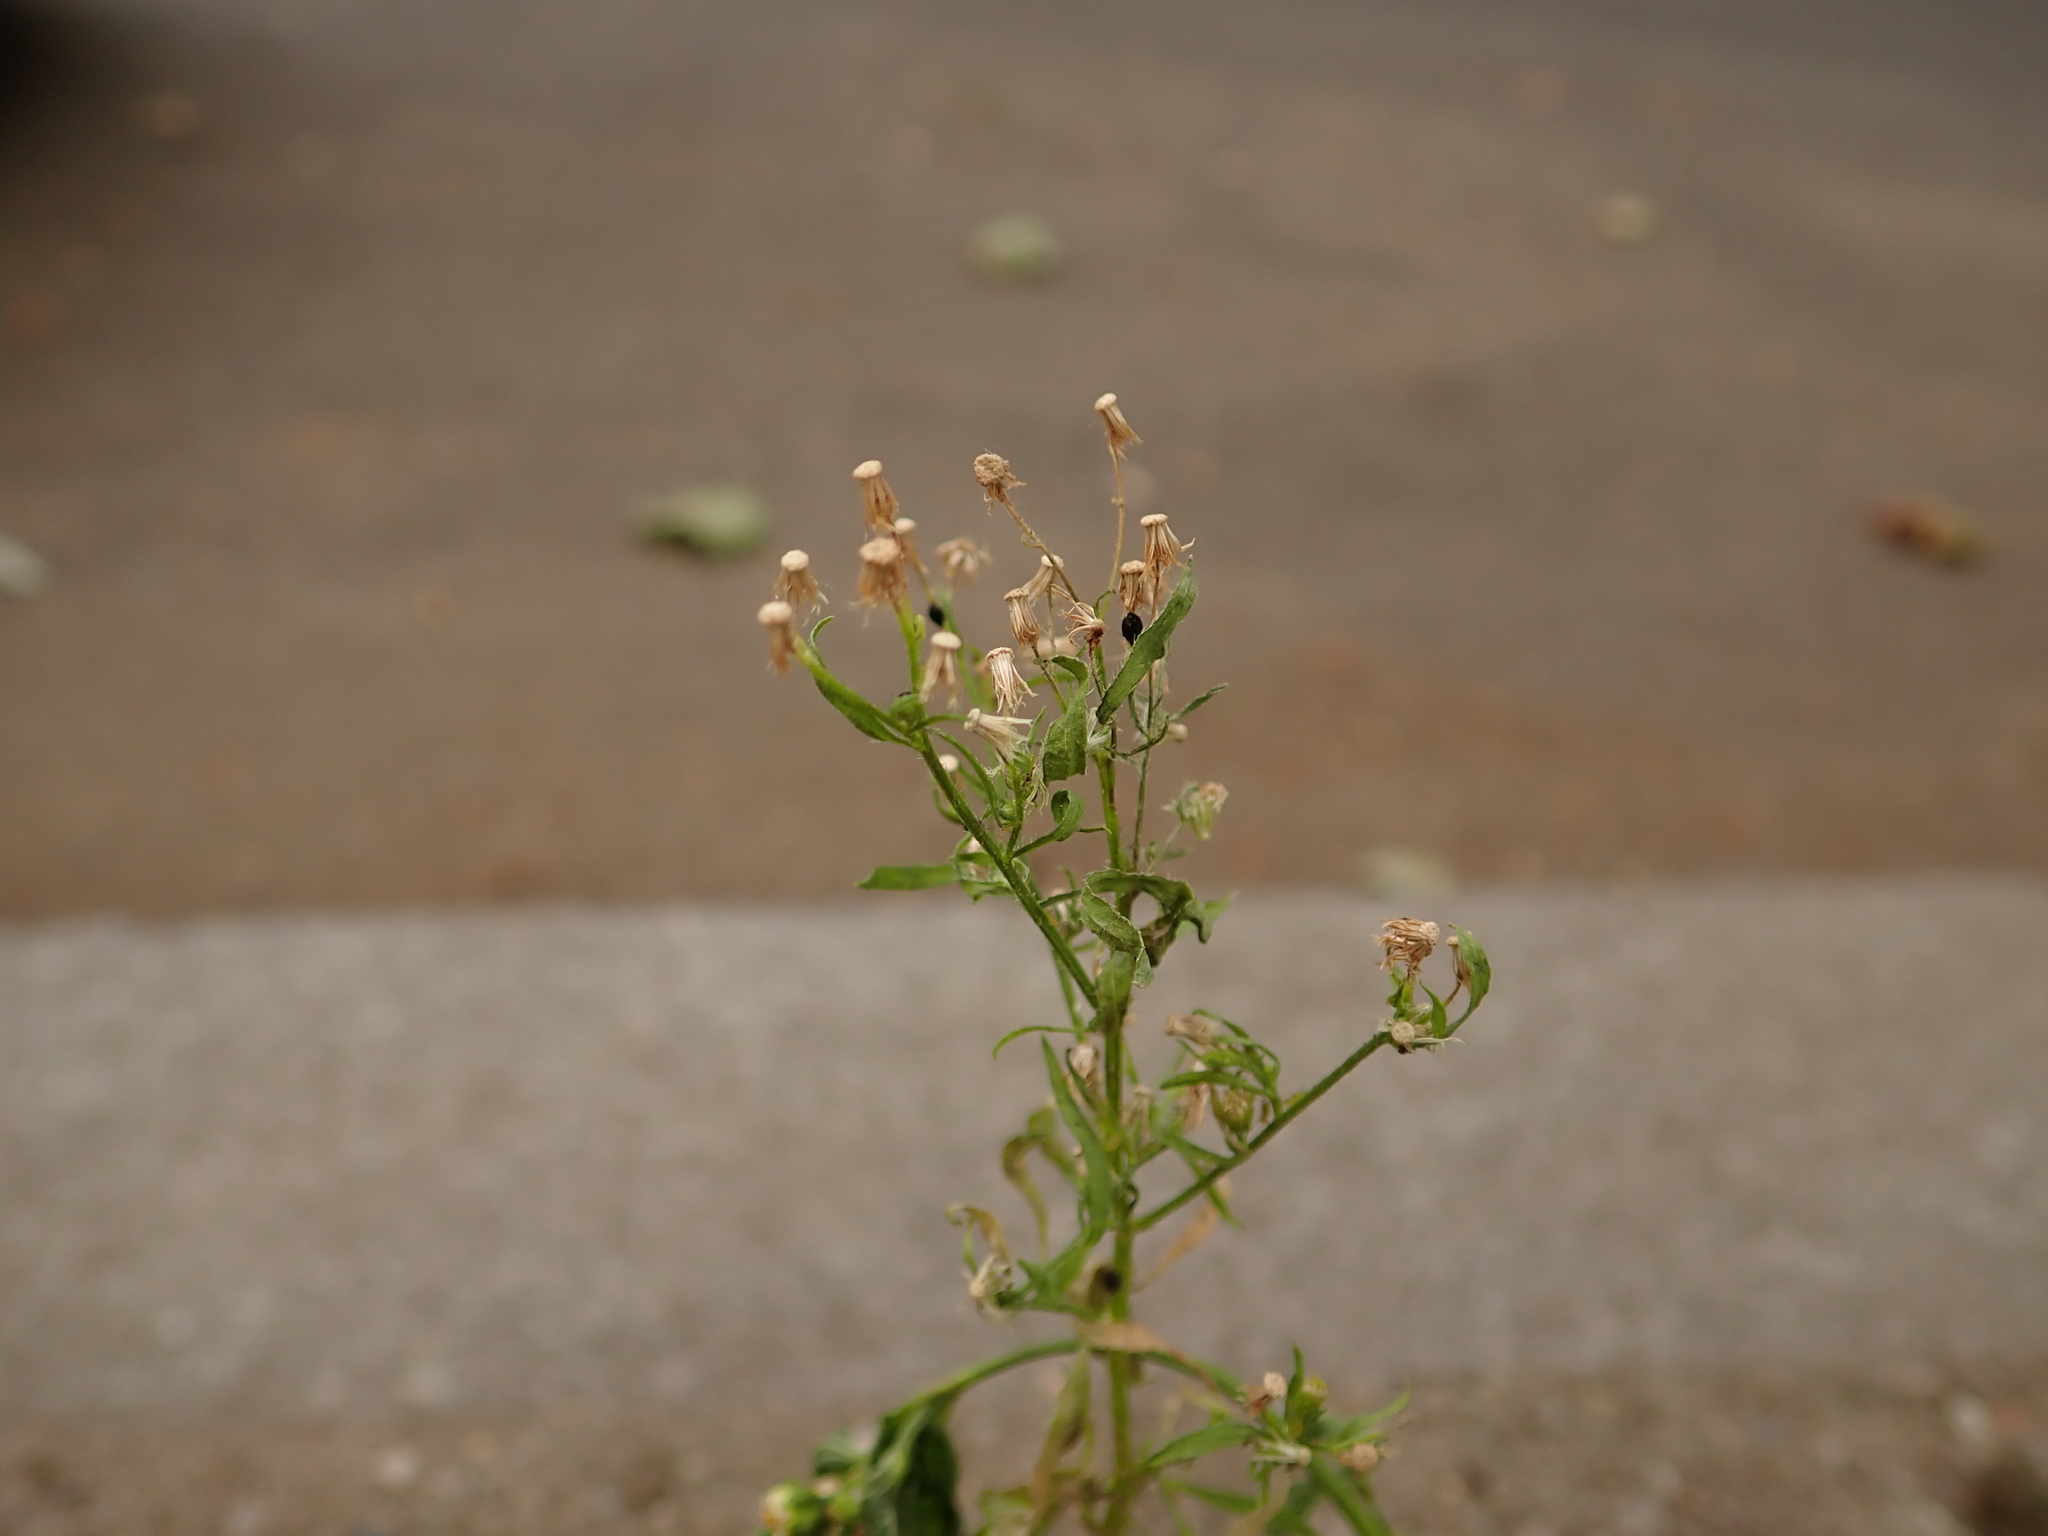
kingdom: Plantae
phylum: Tracheophyta
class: Magnoliopsida
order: Asterales
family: Asteraceae
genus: Erigeron
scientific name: Erigeron canadensis
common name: Canadian fleabane
